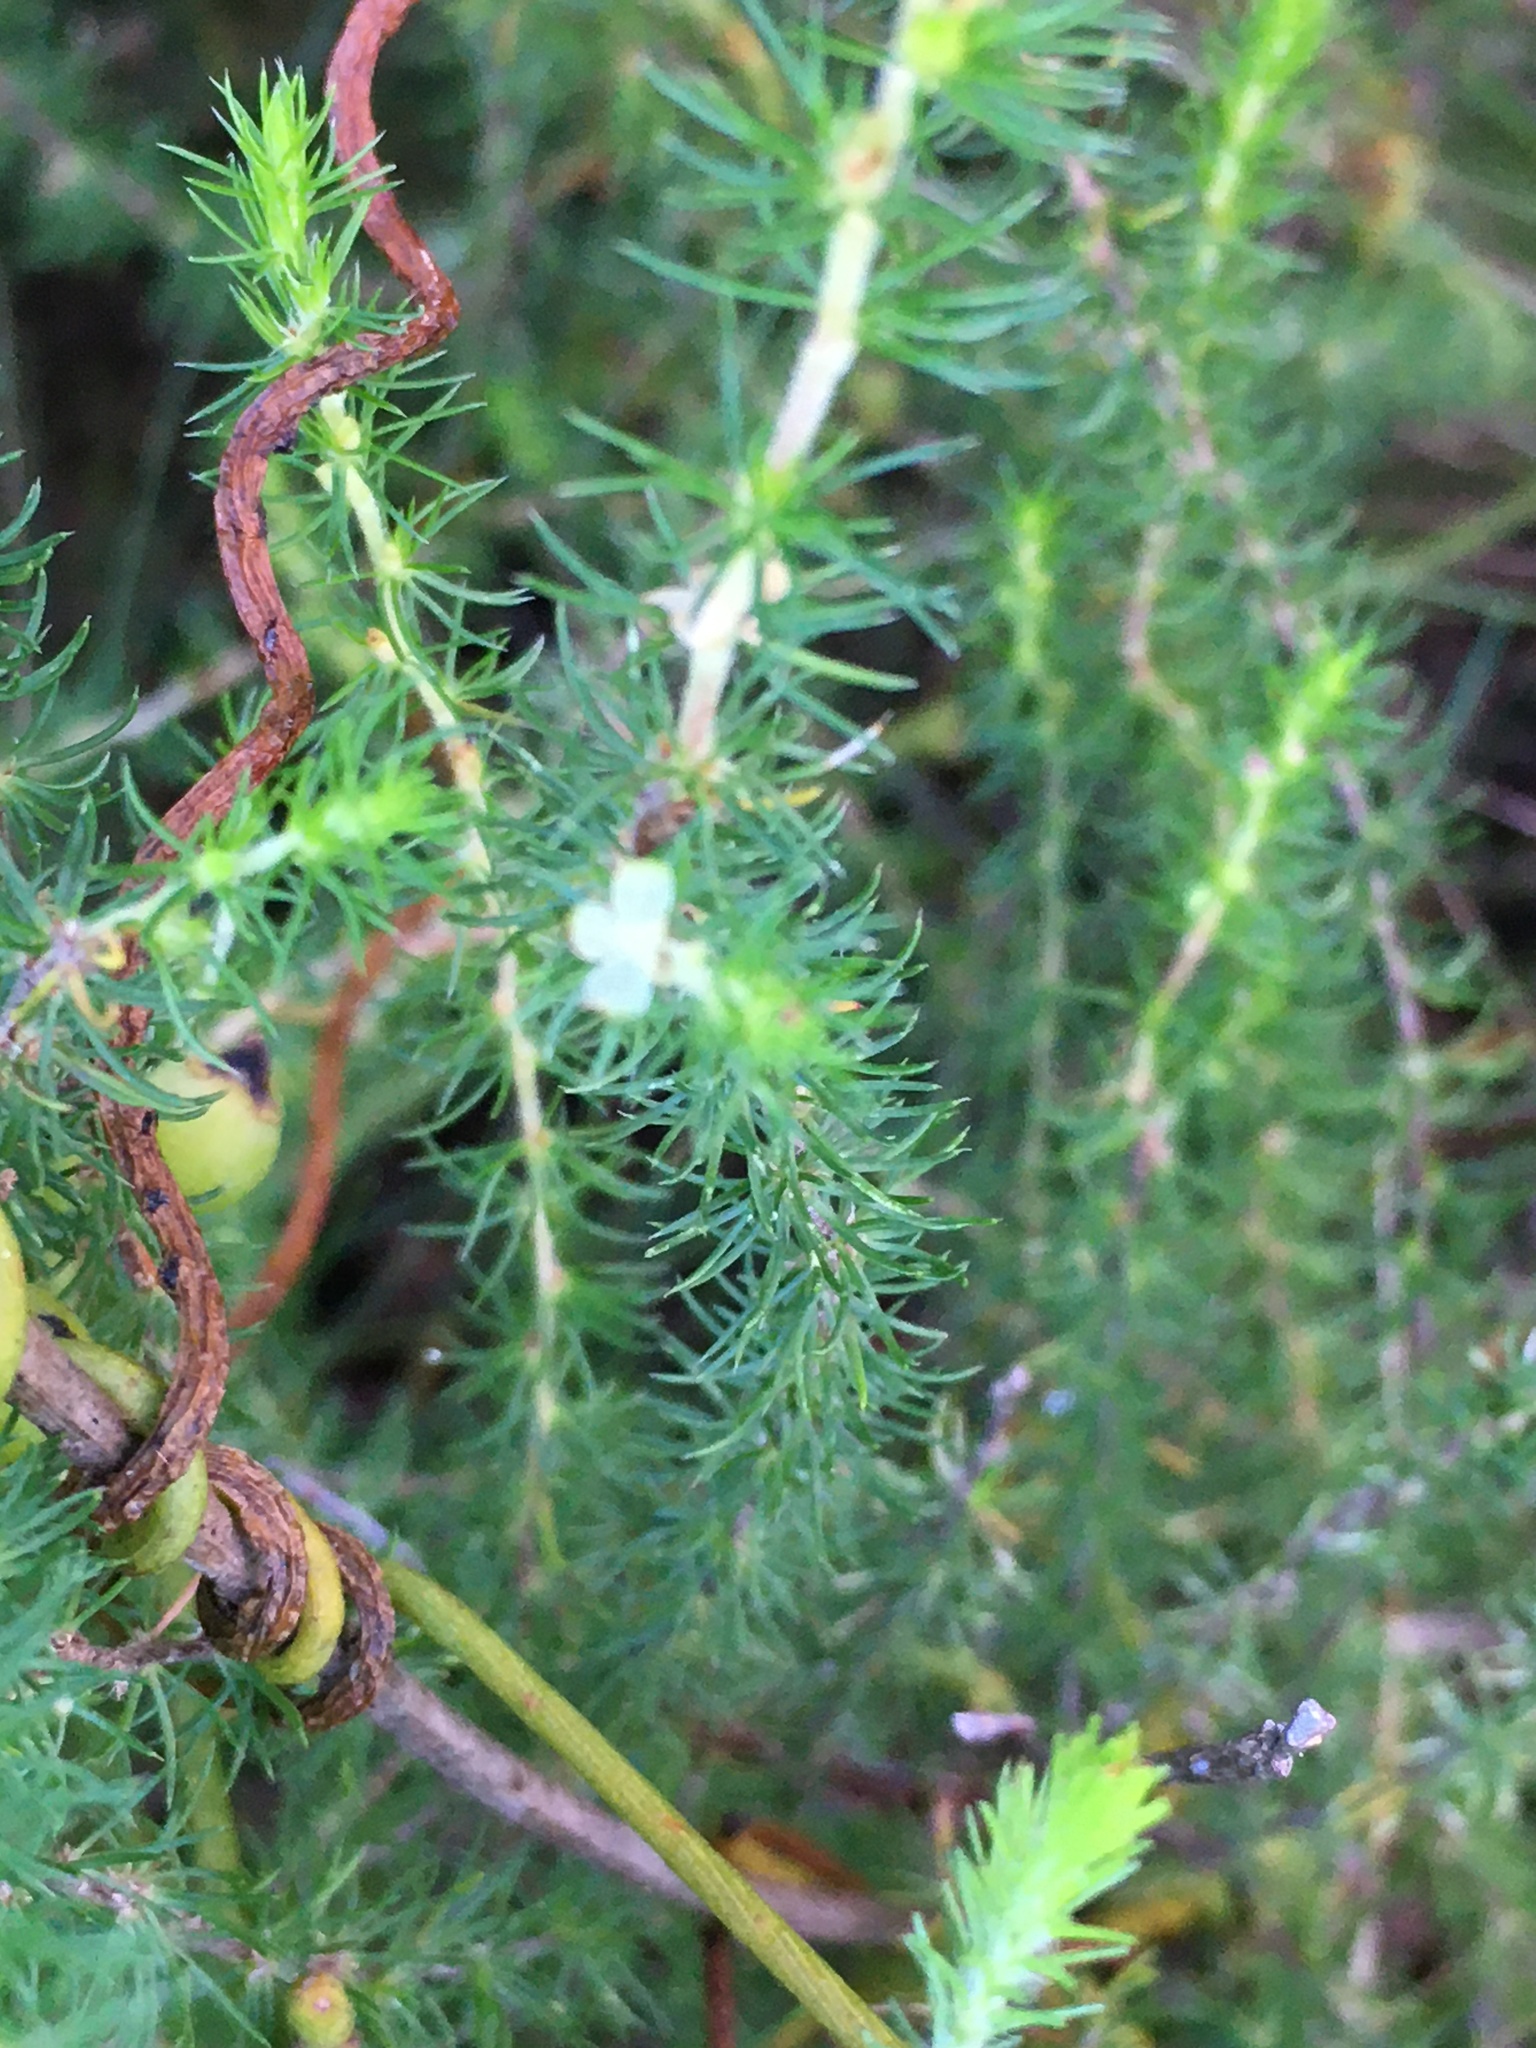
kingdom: Plantae
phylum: Tracheophyta
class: Magnoliopsida
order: Rosales
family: Rosaceae
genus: Cliffortia
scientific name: Cliffortia subsetacea
